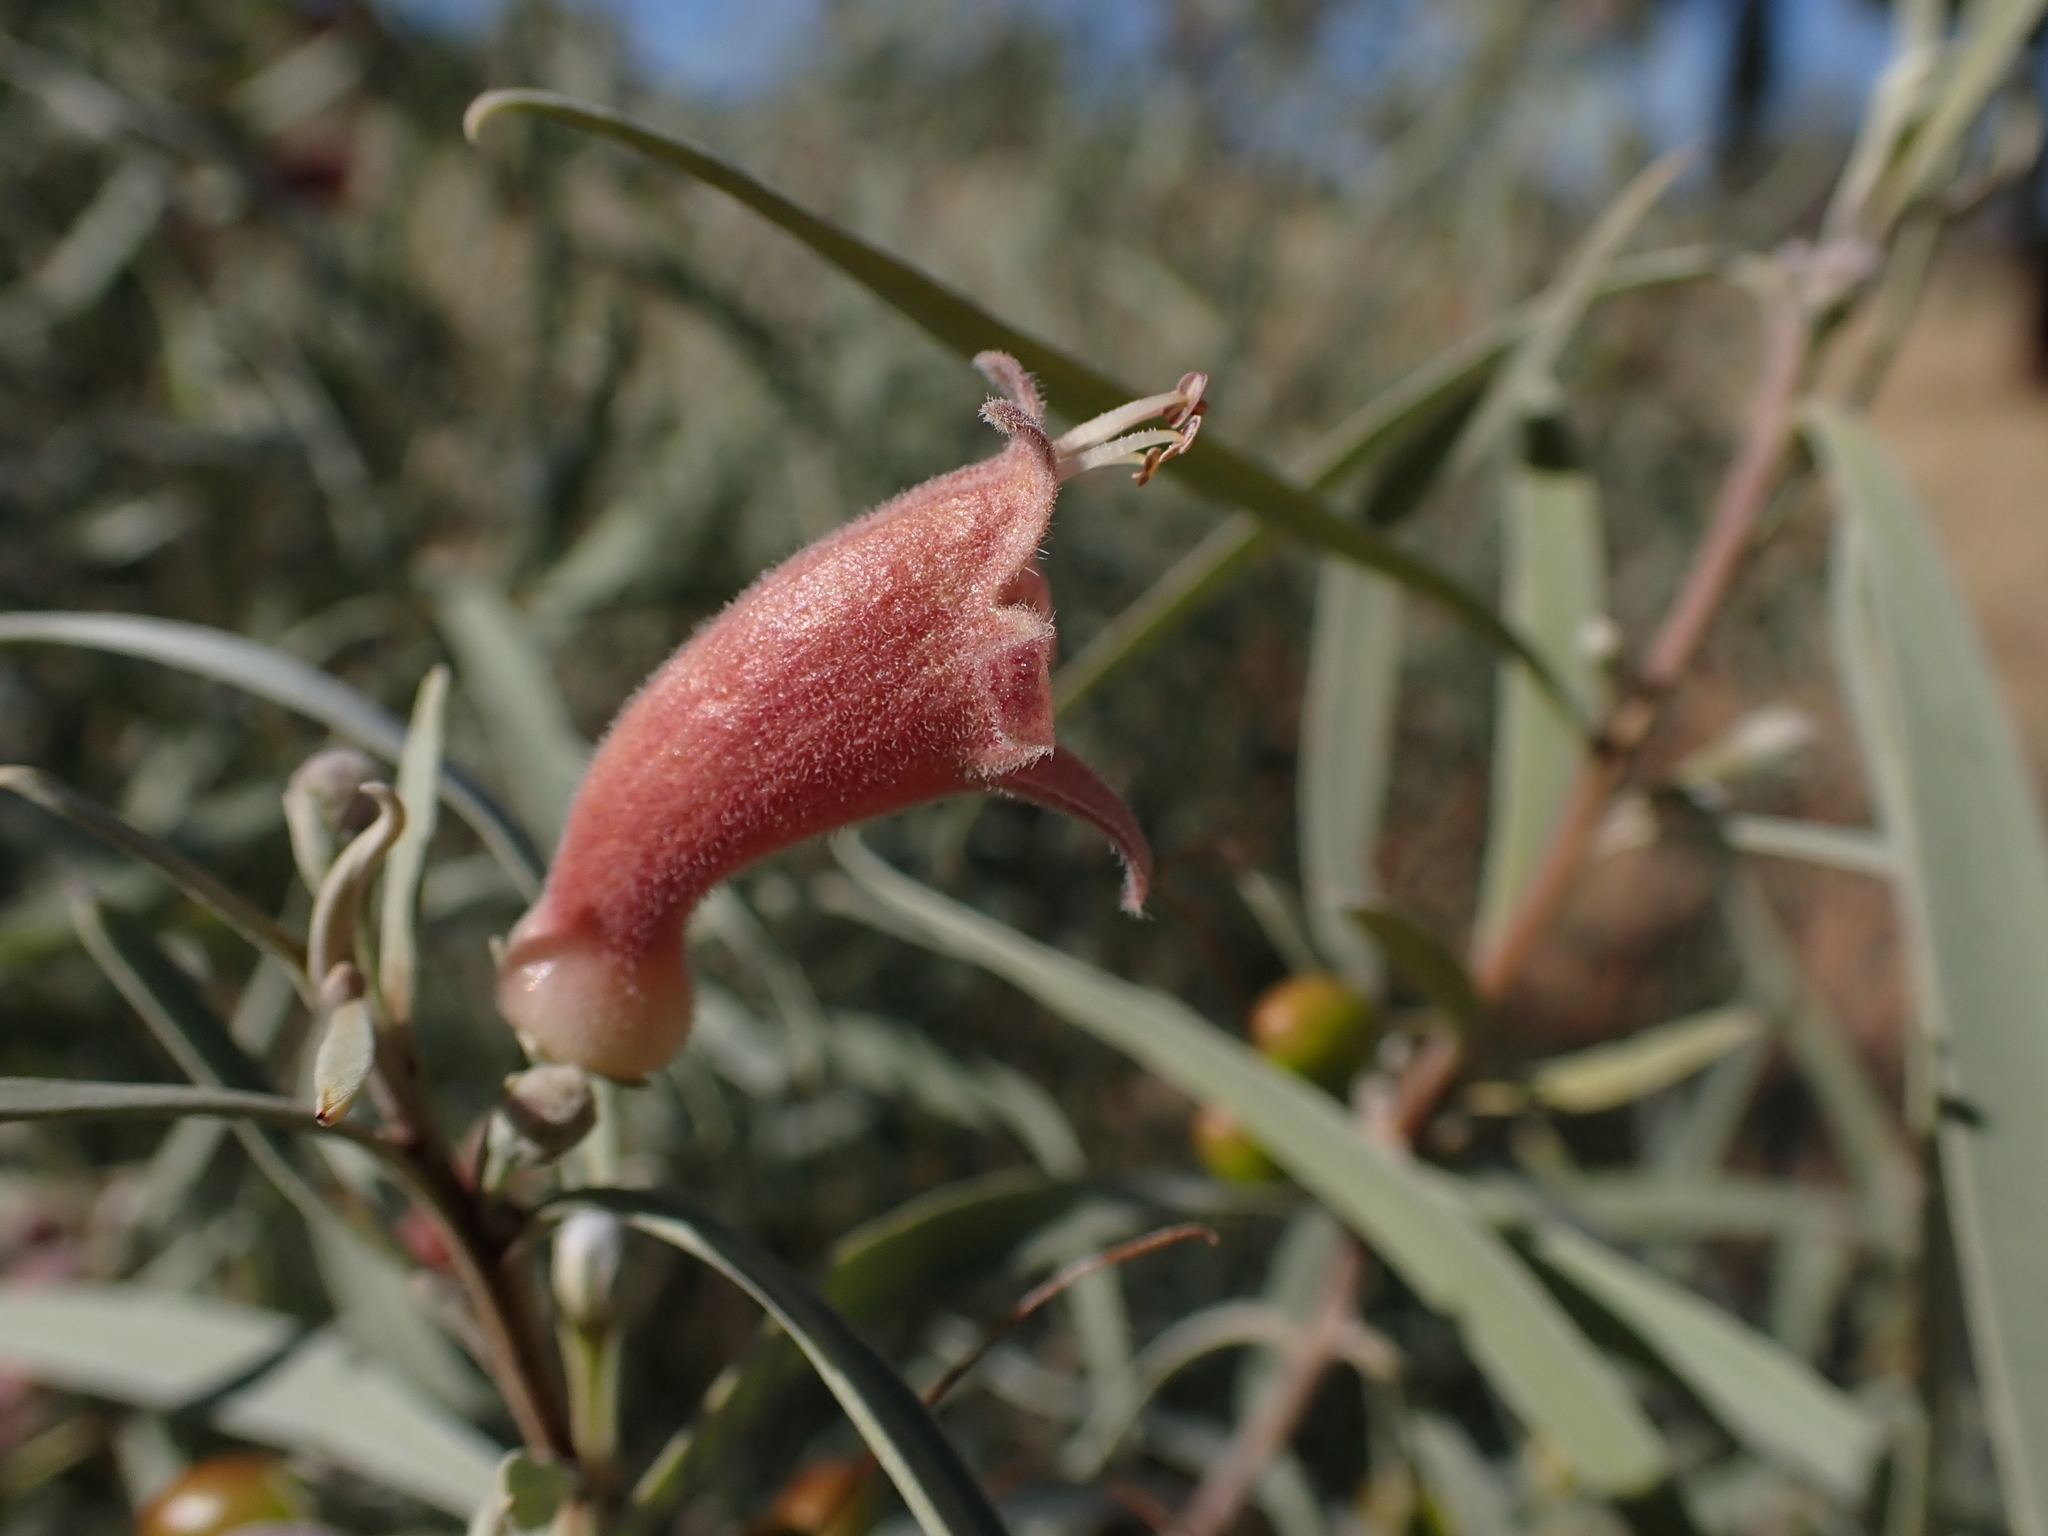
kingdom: Plantae
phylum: Tracheophyta
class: Magnoliopsida
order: Lamiales
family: Scrophulariaceae
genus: Eremophila
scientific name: Eremophila longifolia
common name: Longleaf emubush
